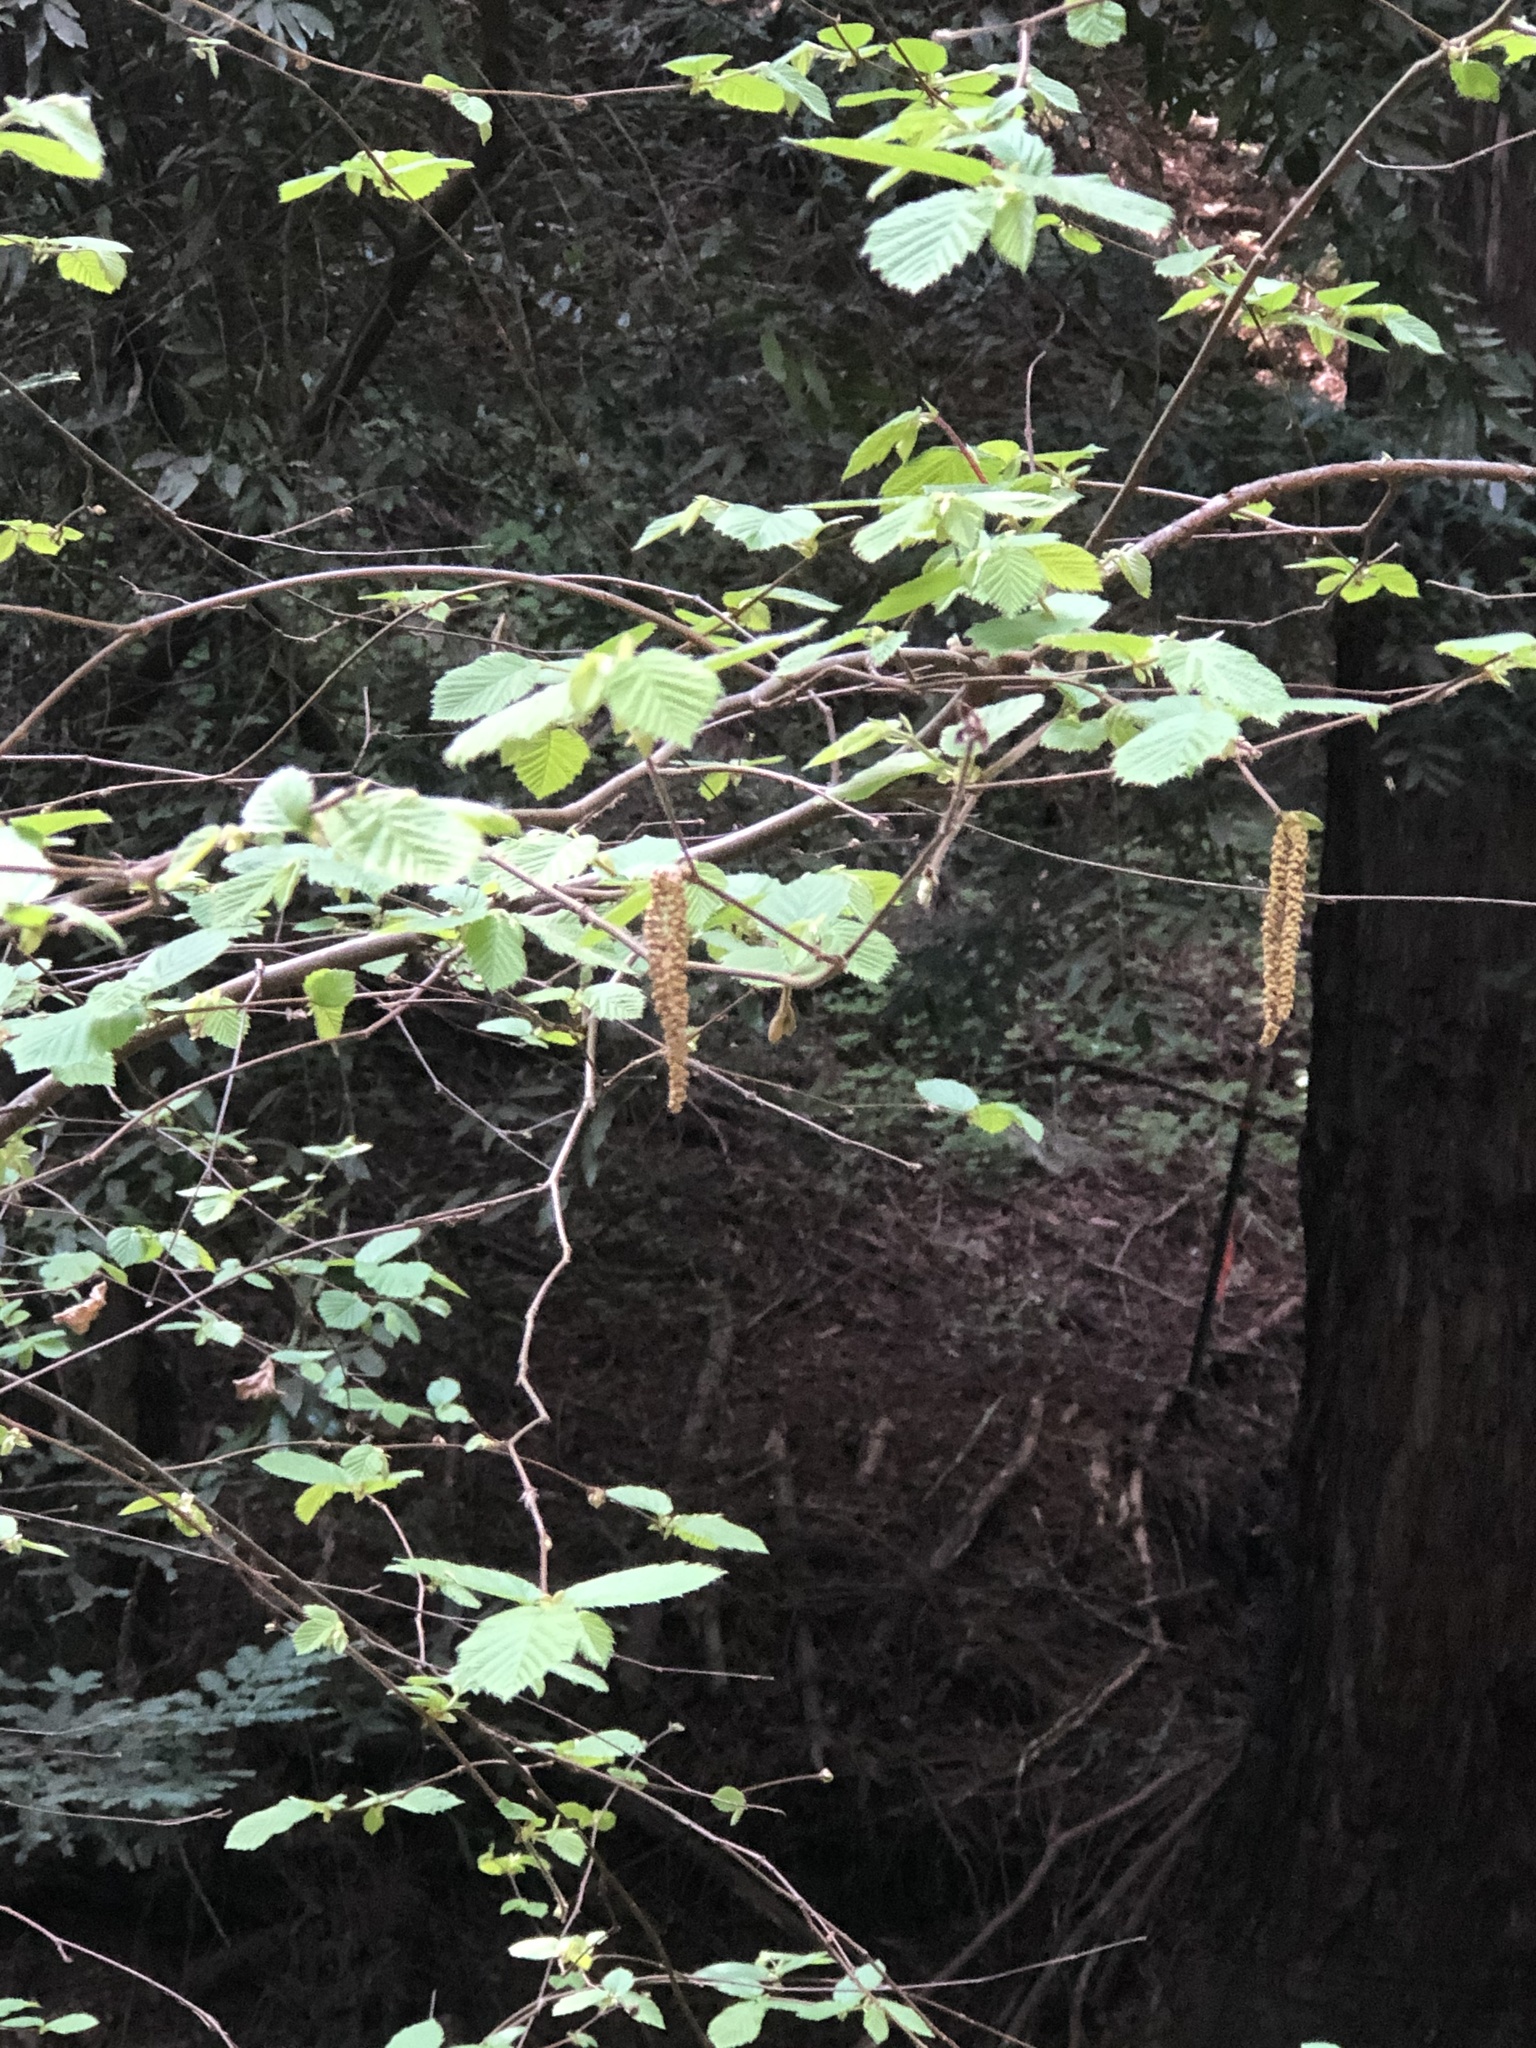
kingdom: Plantae
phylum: Tracheophyta
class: Magnoliopsida
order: Fagales
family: Betulaceae
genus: Corylus
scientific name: Corylus cornuta
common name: Beaked hazel
